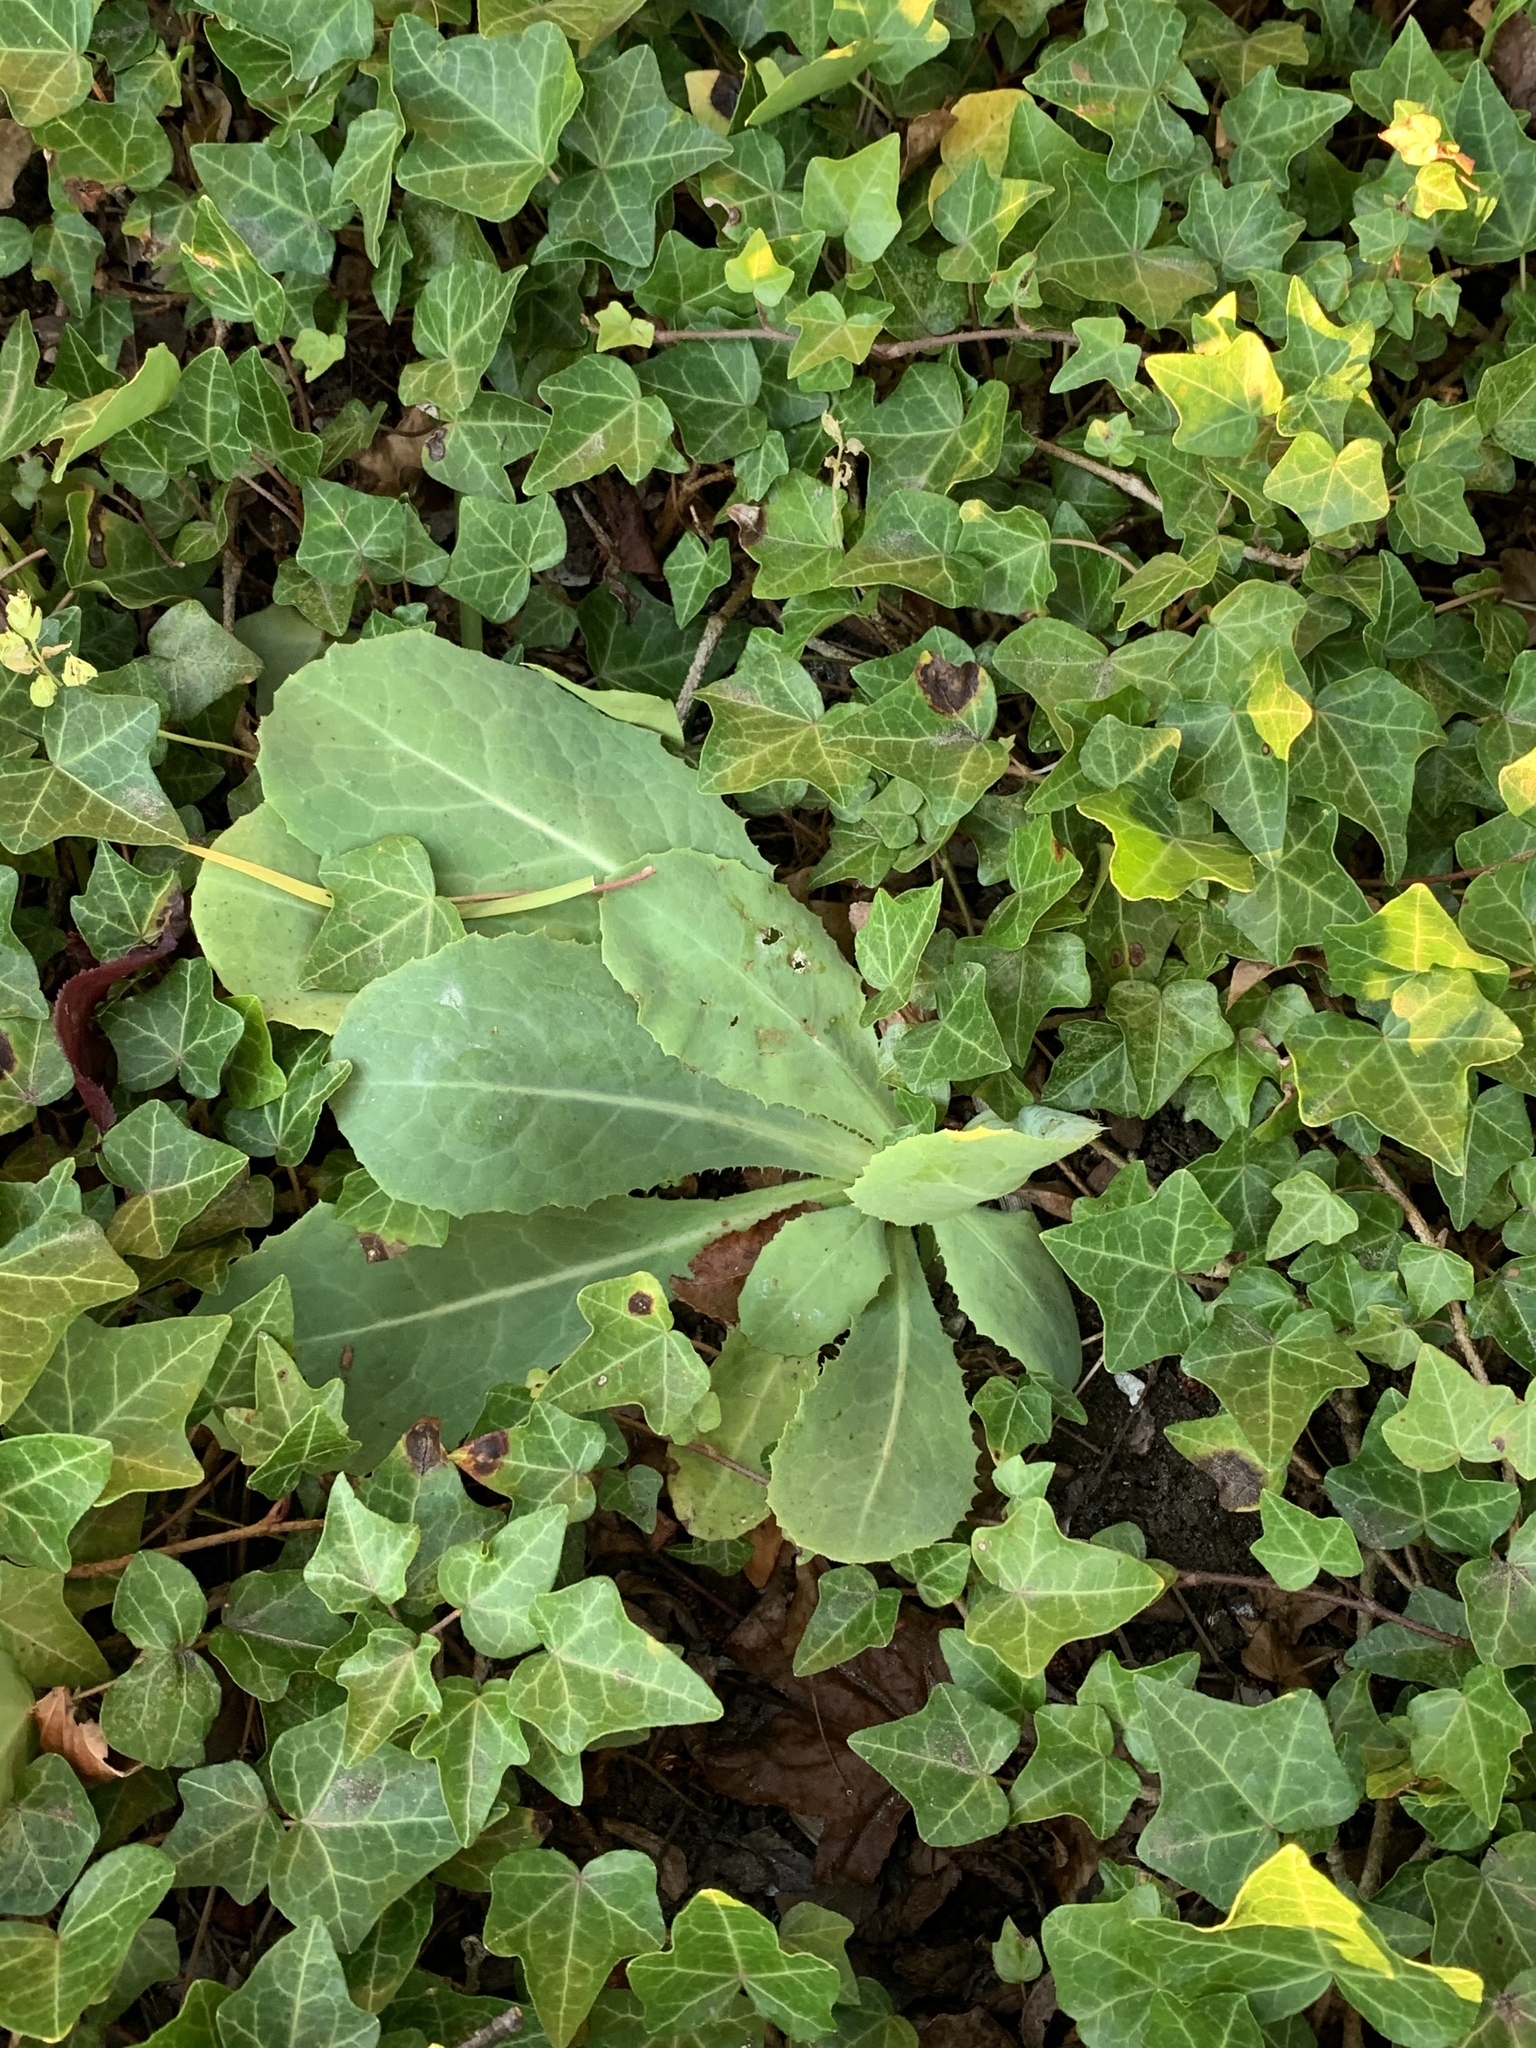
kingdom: Plantae
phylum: Tracheophyta
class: Magnoliopsida
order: Asterales
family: Asteraceae
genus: Lactuca
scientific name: Lactuca serriola
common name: Prickly lettuce
